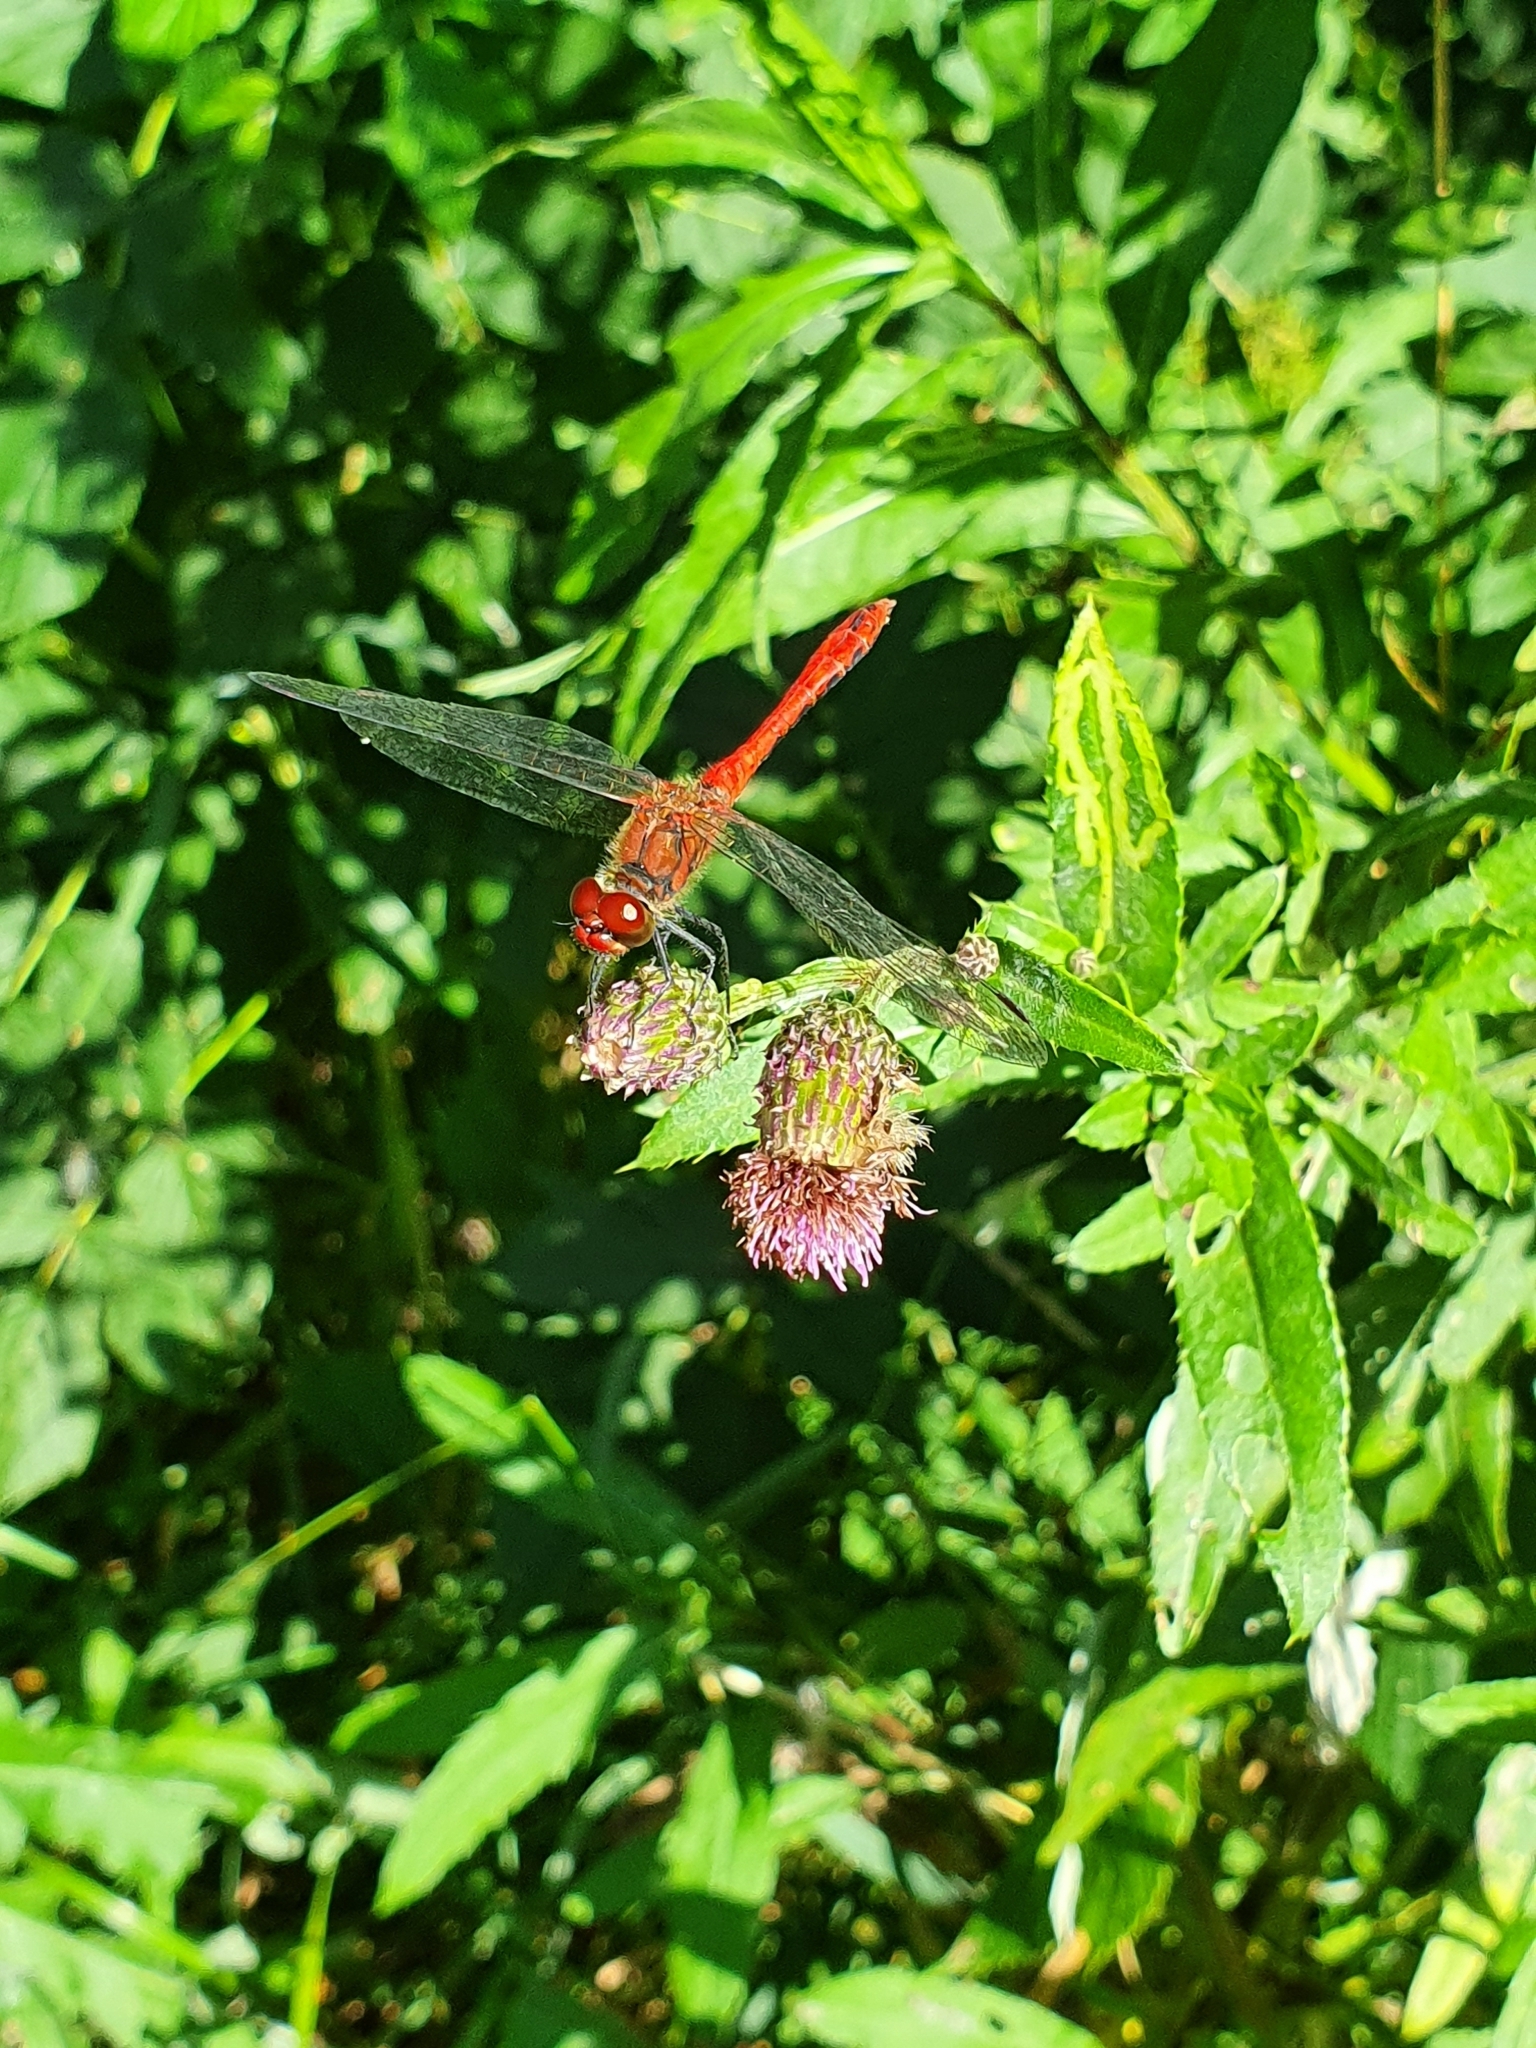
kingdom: Animalia
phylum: Arthropoda
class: Insecta
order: Odonata
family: Libellulidae
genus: Sympetrum
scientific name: Sympetrum sanguineum
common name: Ruddy darter
